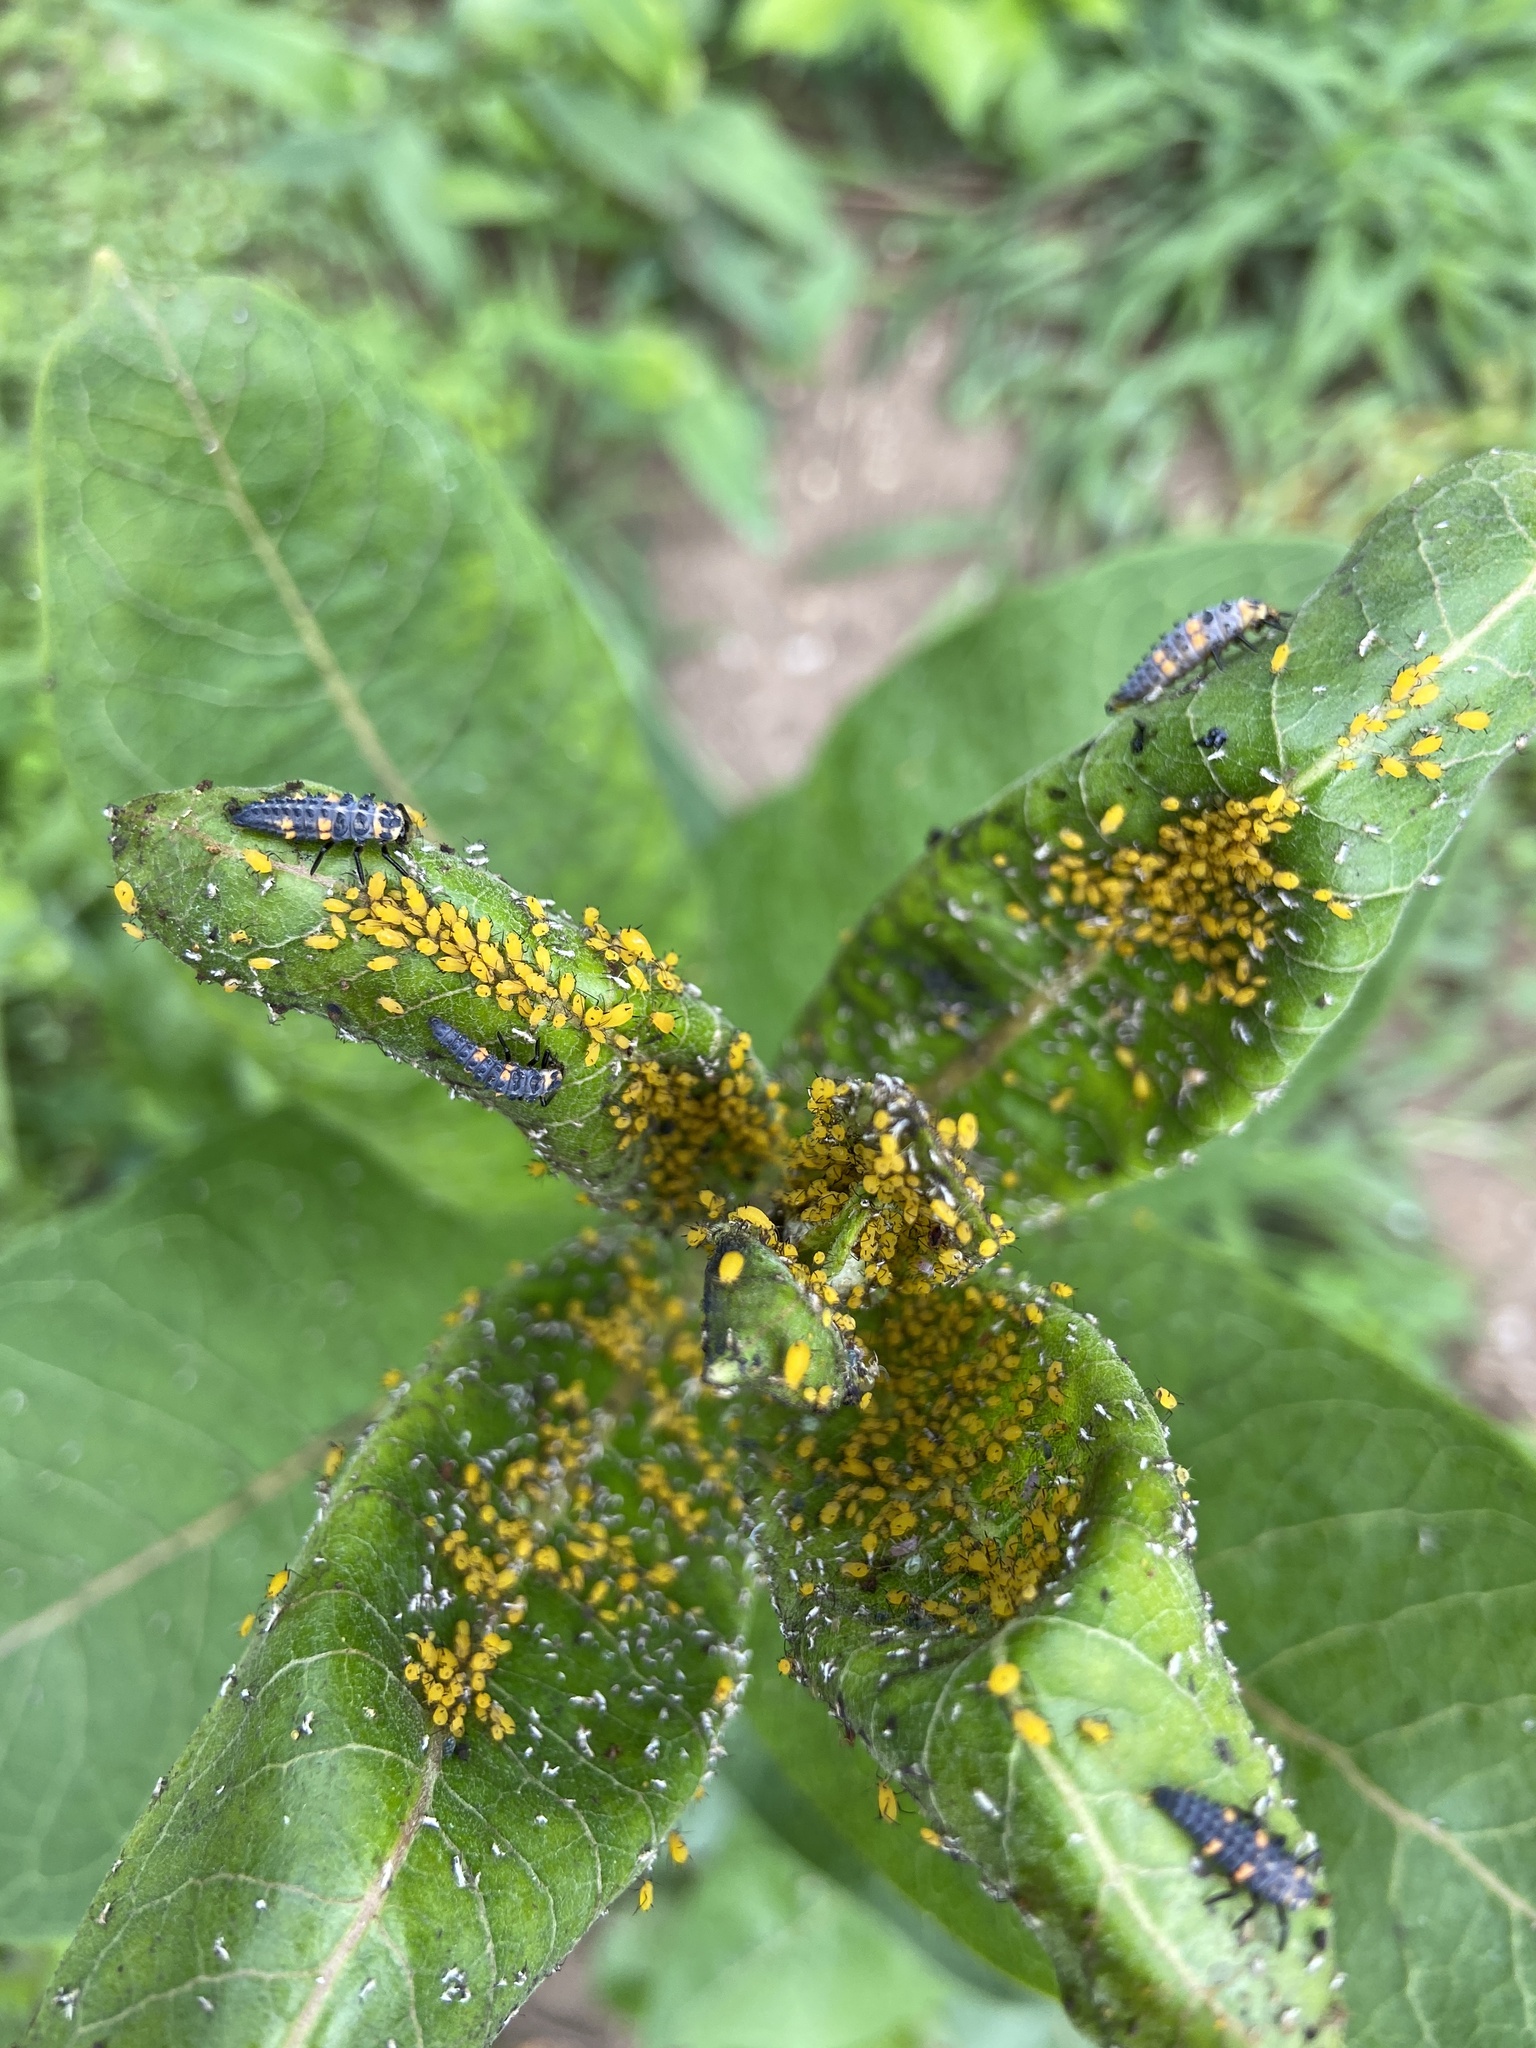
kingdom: Animalia
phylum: Arthropoda
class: Insecta
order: Hemiptera
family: Aphididae
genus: Aphis
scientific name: Aphis nerii
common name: Oleander aphid
